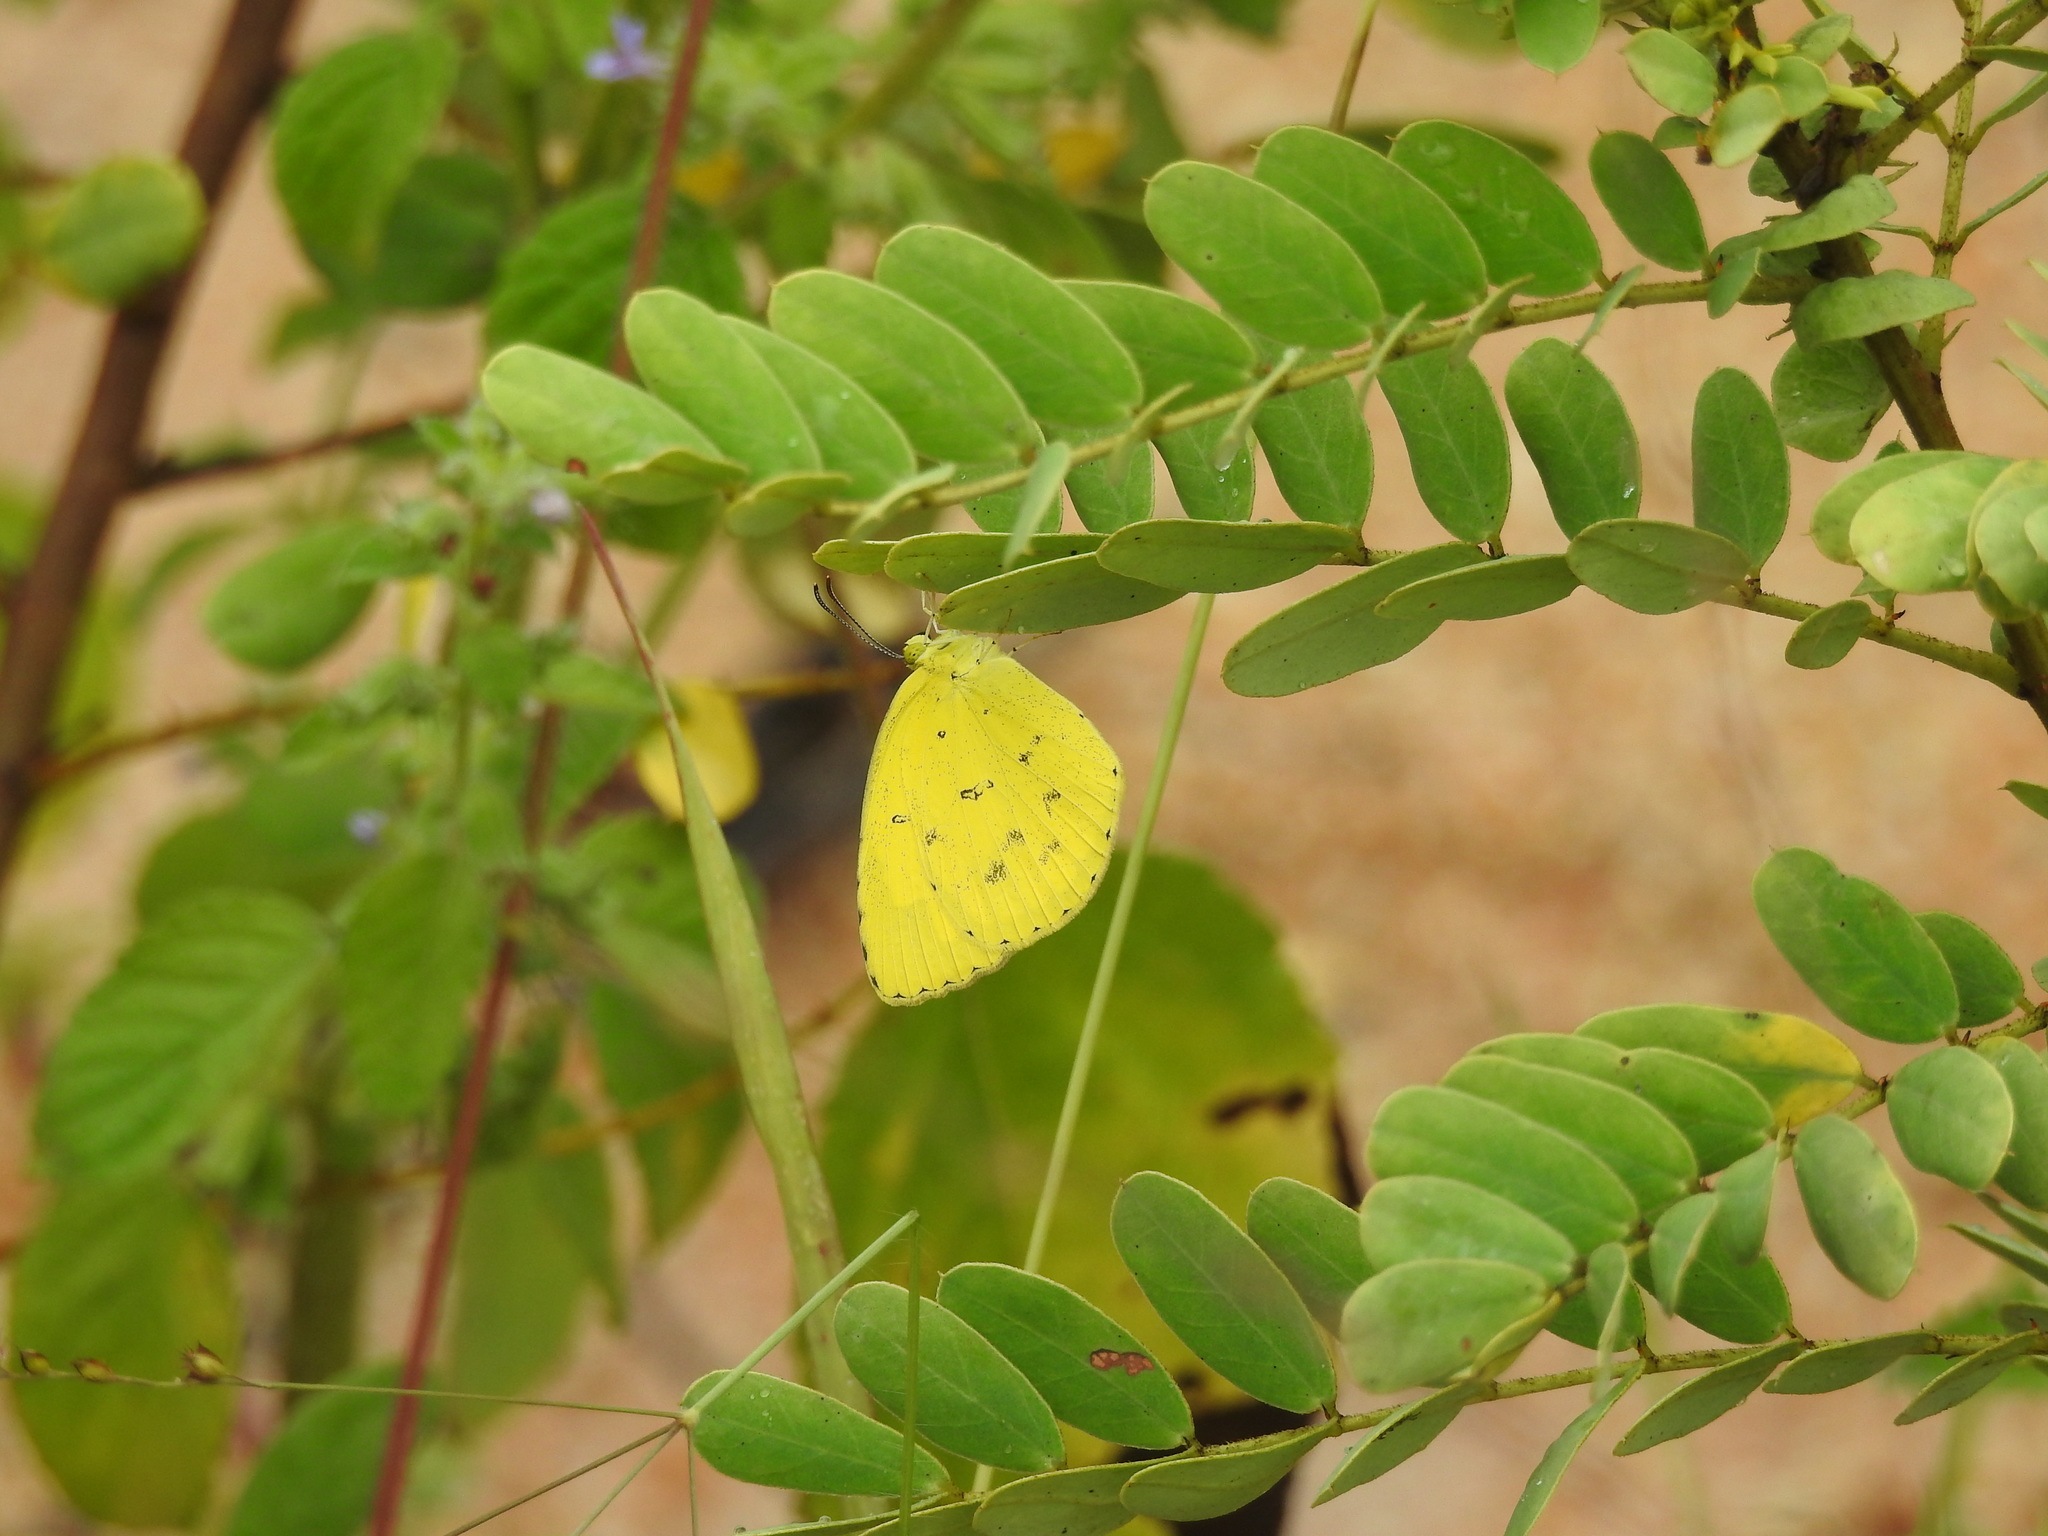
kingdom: Animalia
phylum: Arthropoda
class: Insecta
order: Lepidoptera
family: Pieridae
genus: Eurema
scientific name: Eurema hecabe
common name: Pale grass yellow
